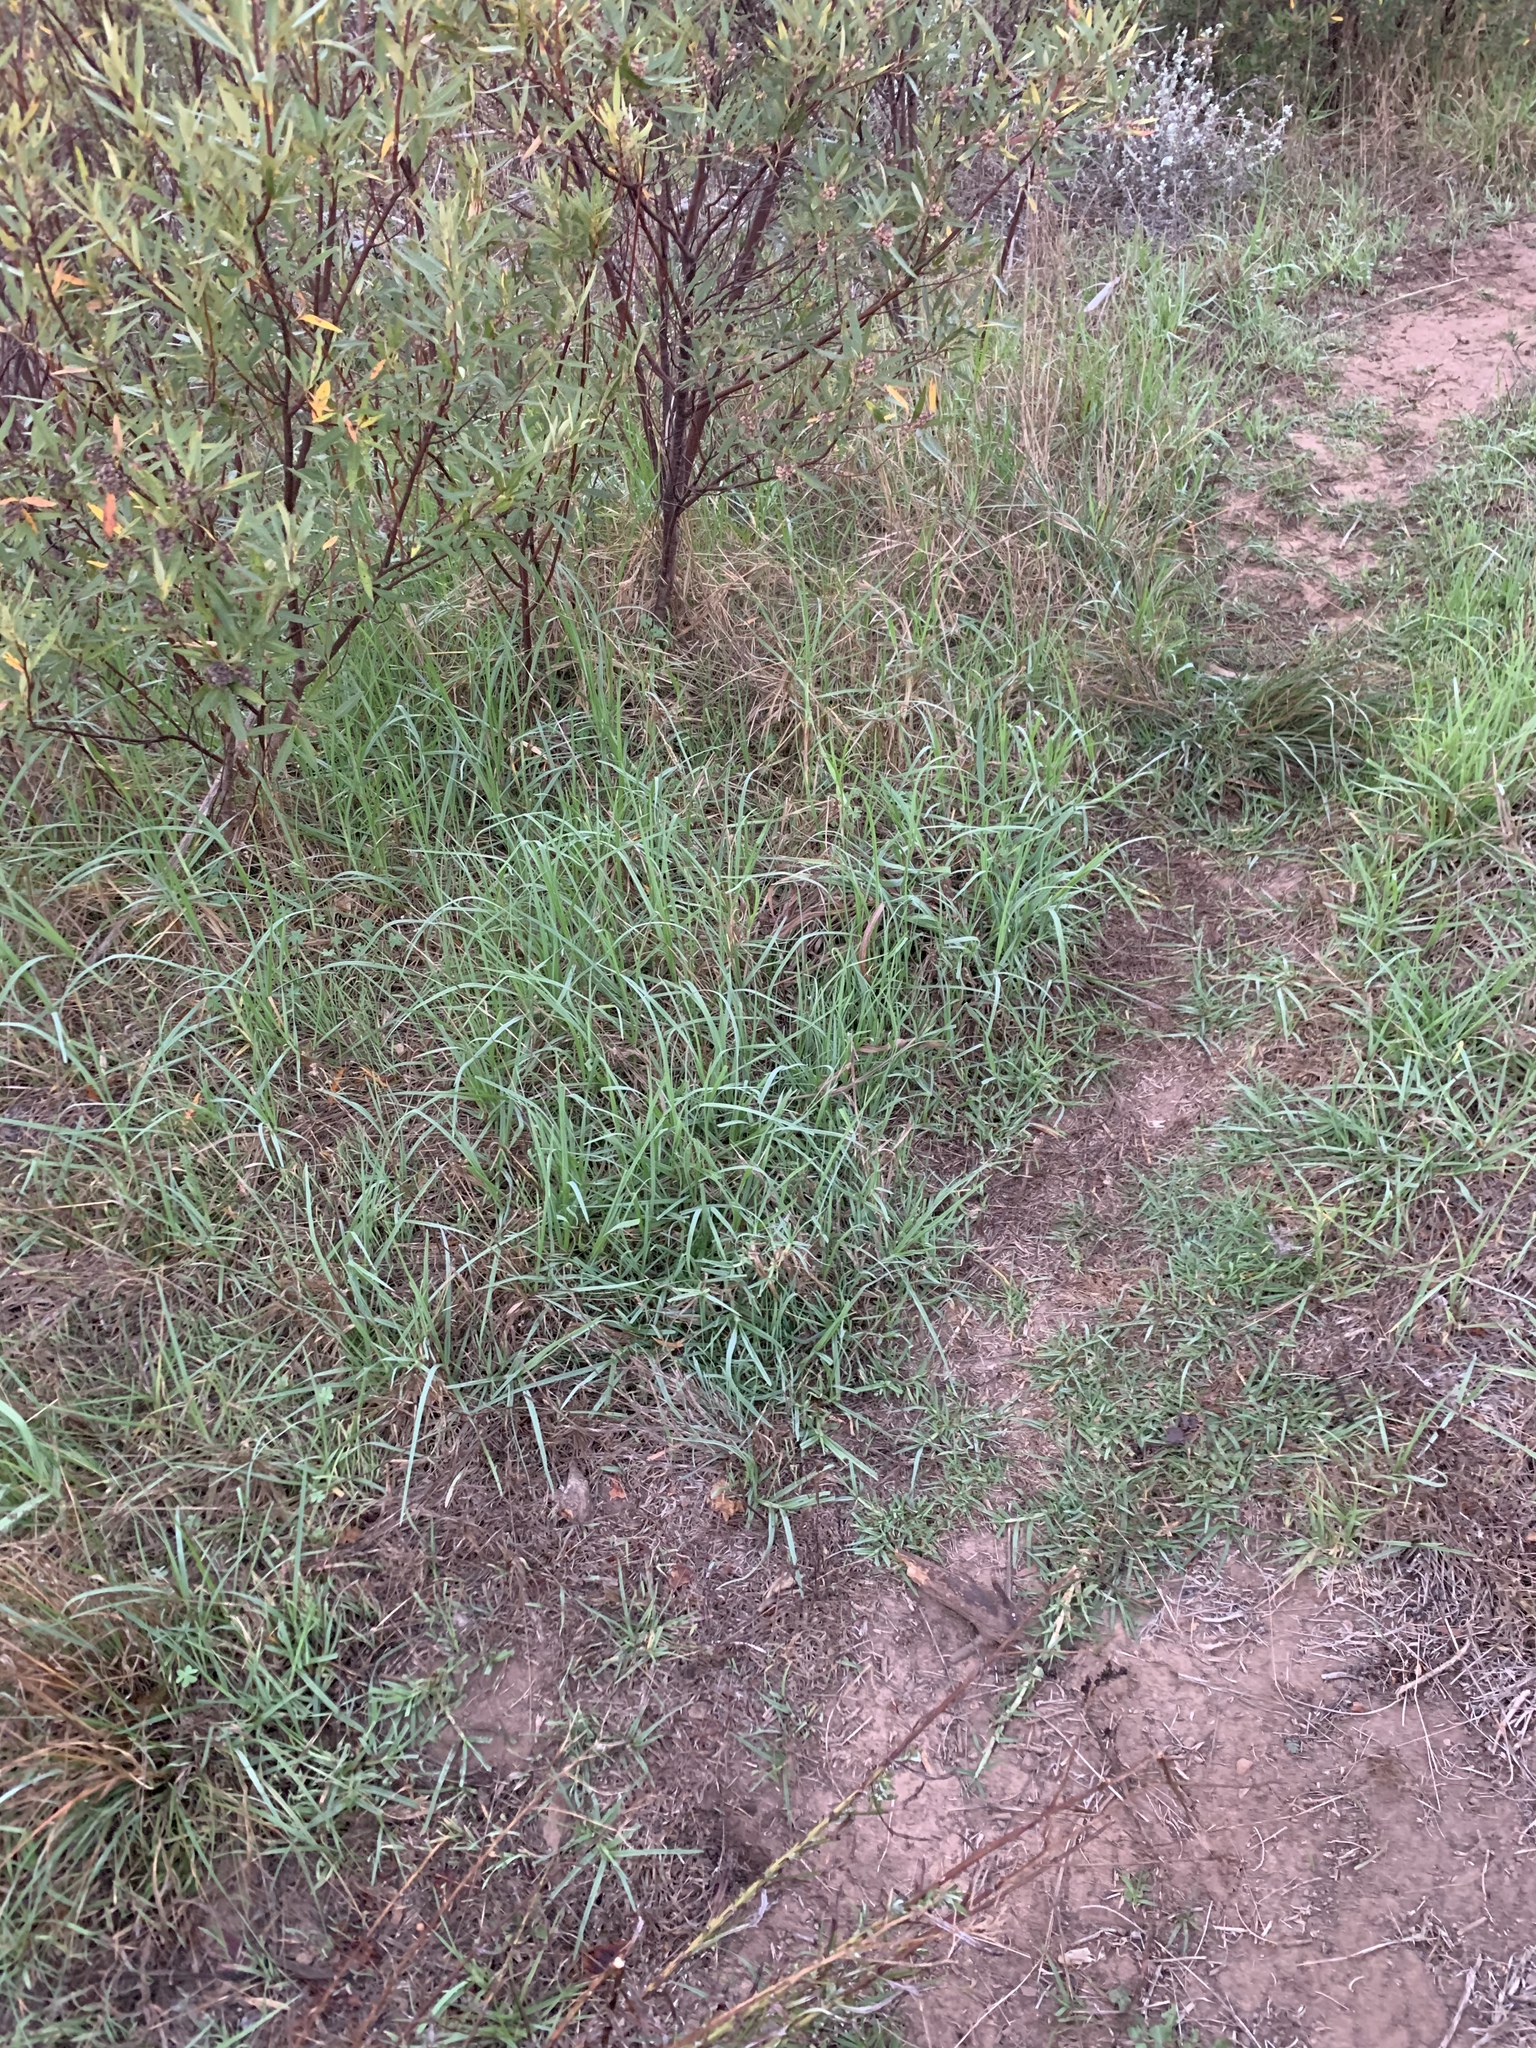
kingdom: Plantae
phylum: Tracheophyta
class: Liliopsida
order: Poales
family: Poaceae
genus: Cenchrus
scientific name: Cenchrus clandestinus
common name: Kikuyugrass
